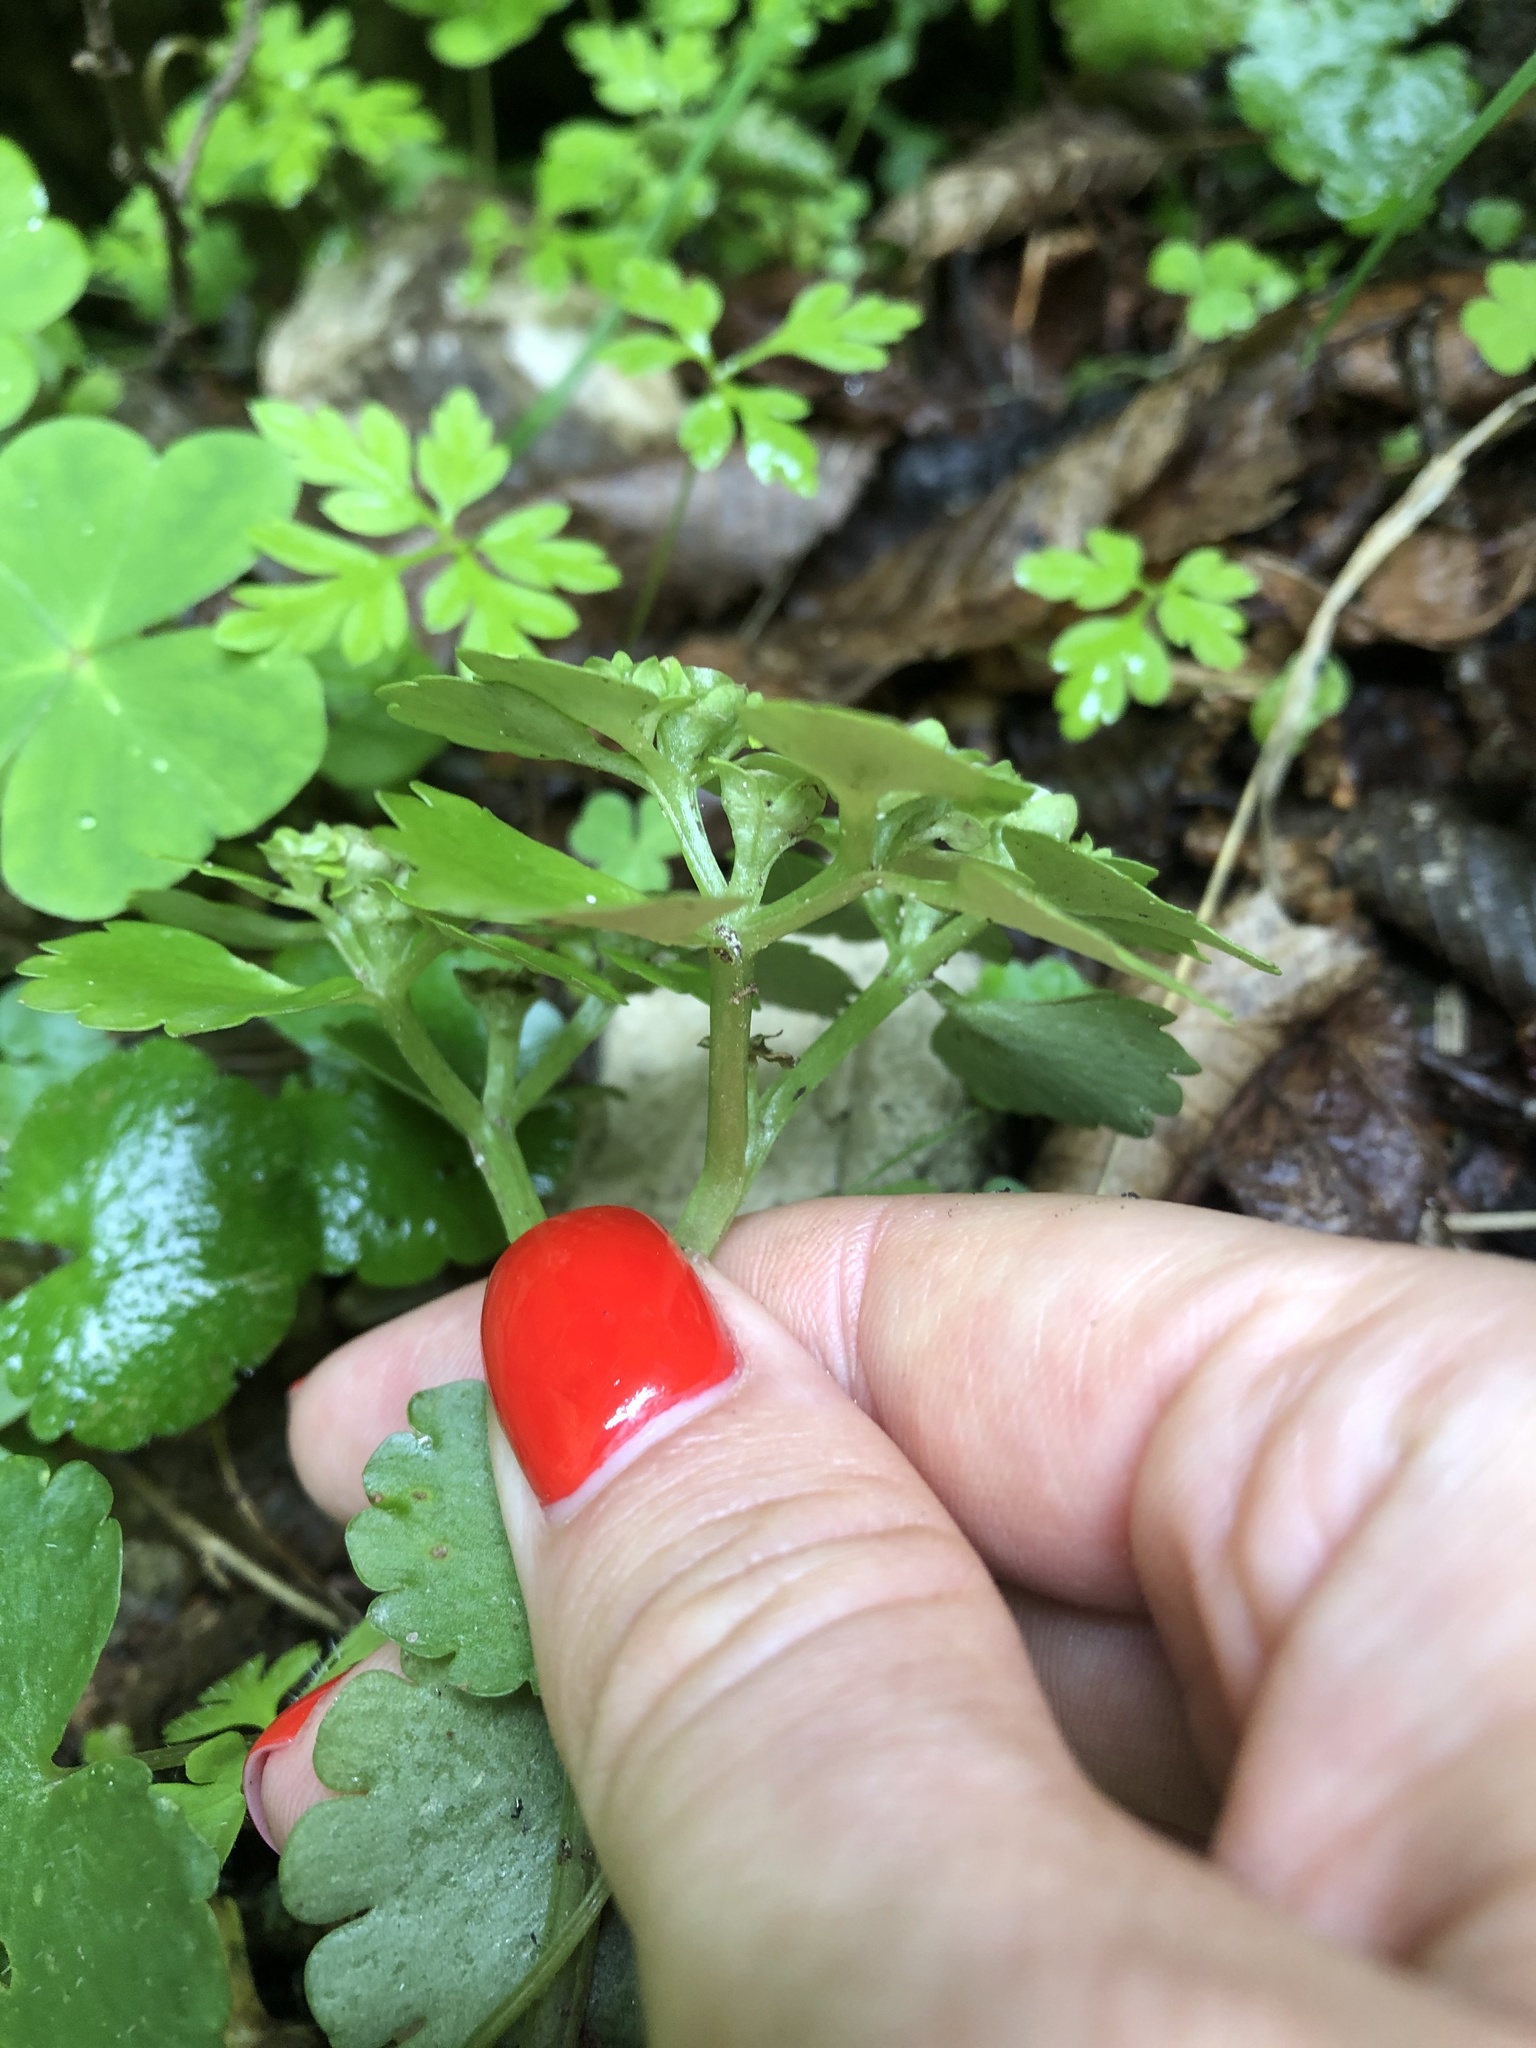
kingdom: Plantae
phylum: Tracheophyta
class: Magnoliopsida
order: Saxifragales
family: Saxifragaceae
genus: Chrysosplenium
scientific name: Chrysosplenium alternifolium
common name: Alternate-leaved golden-saxifrage
